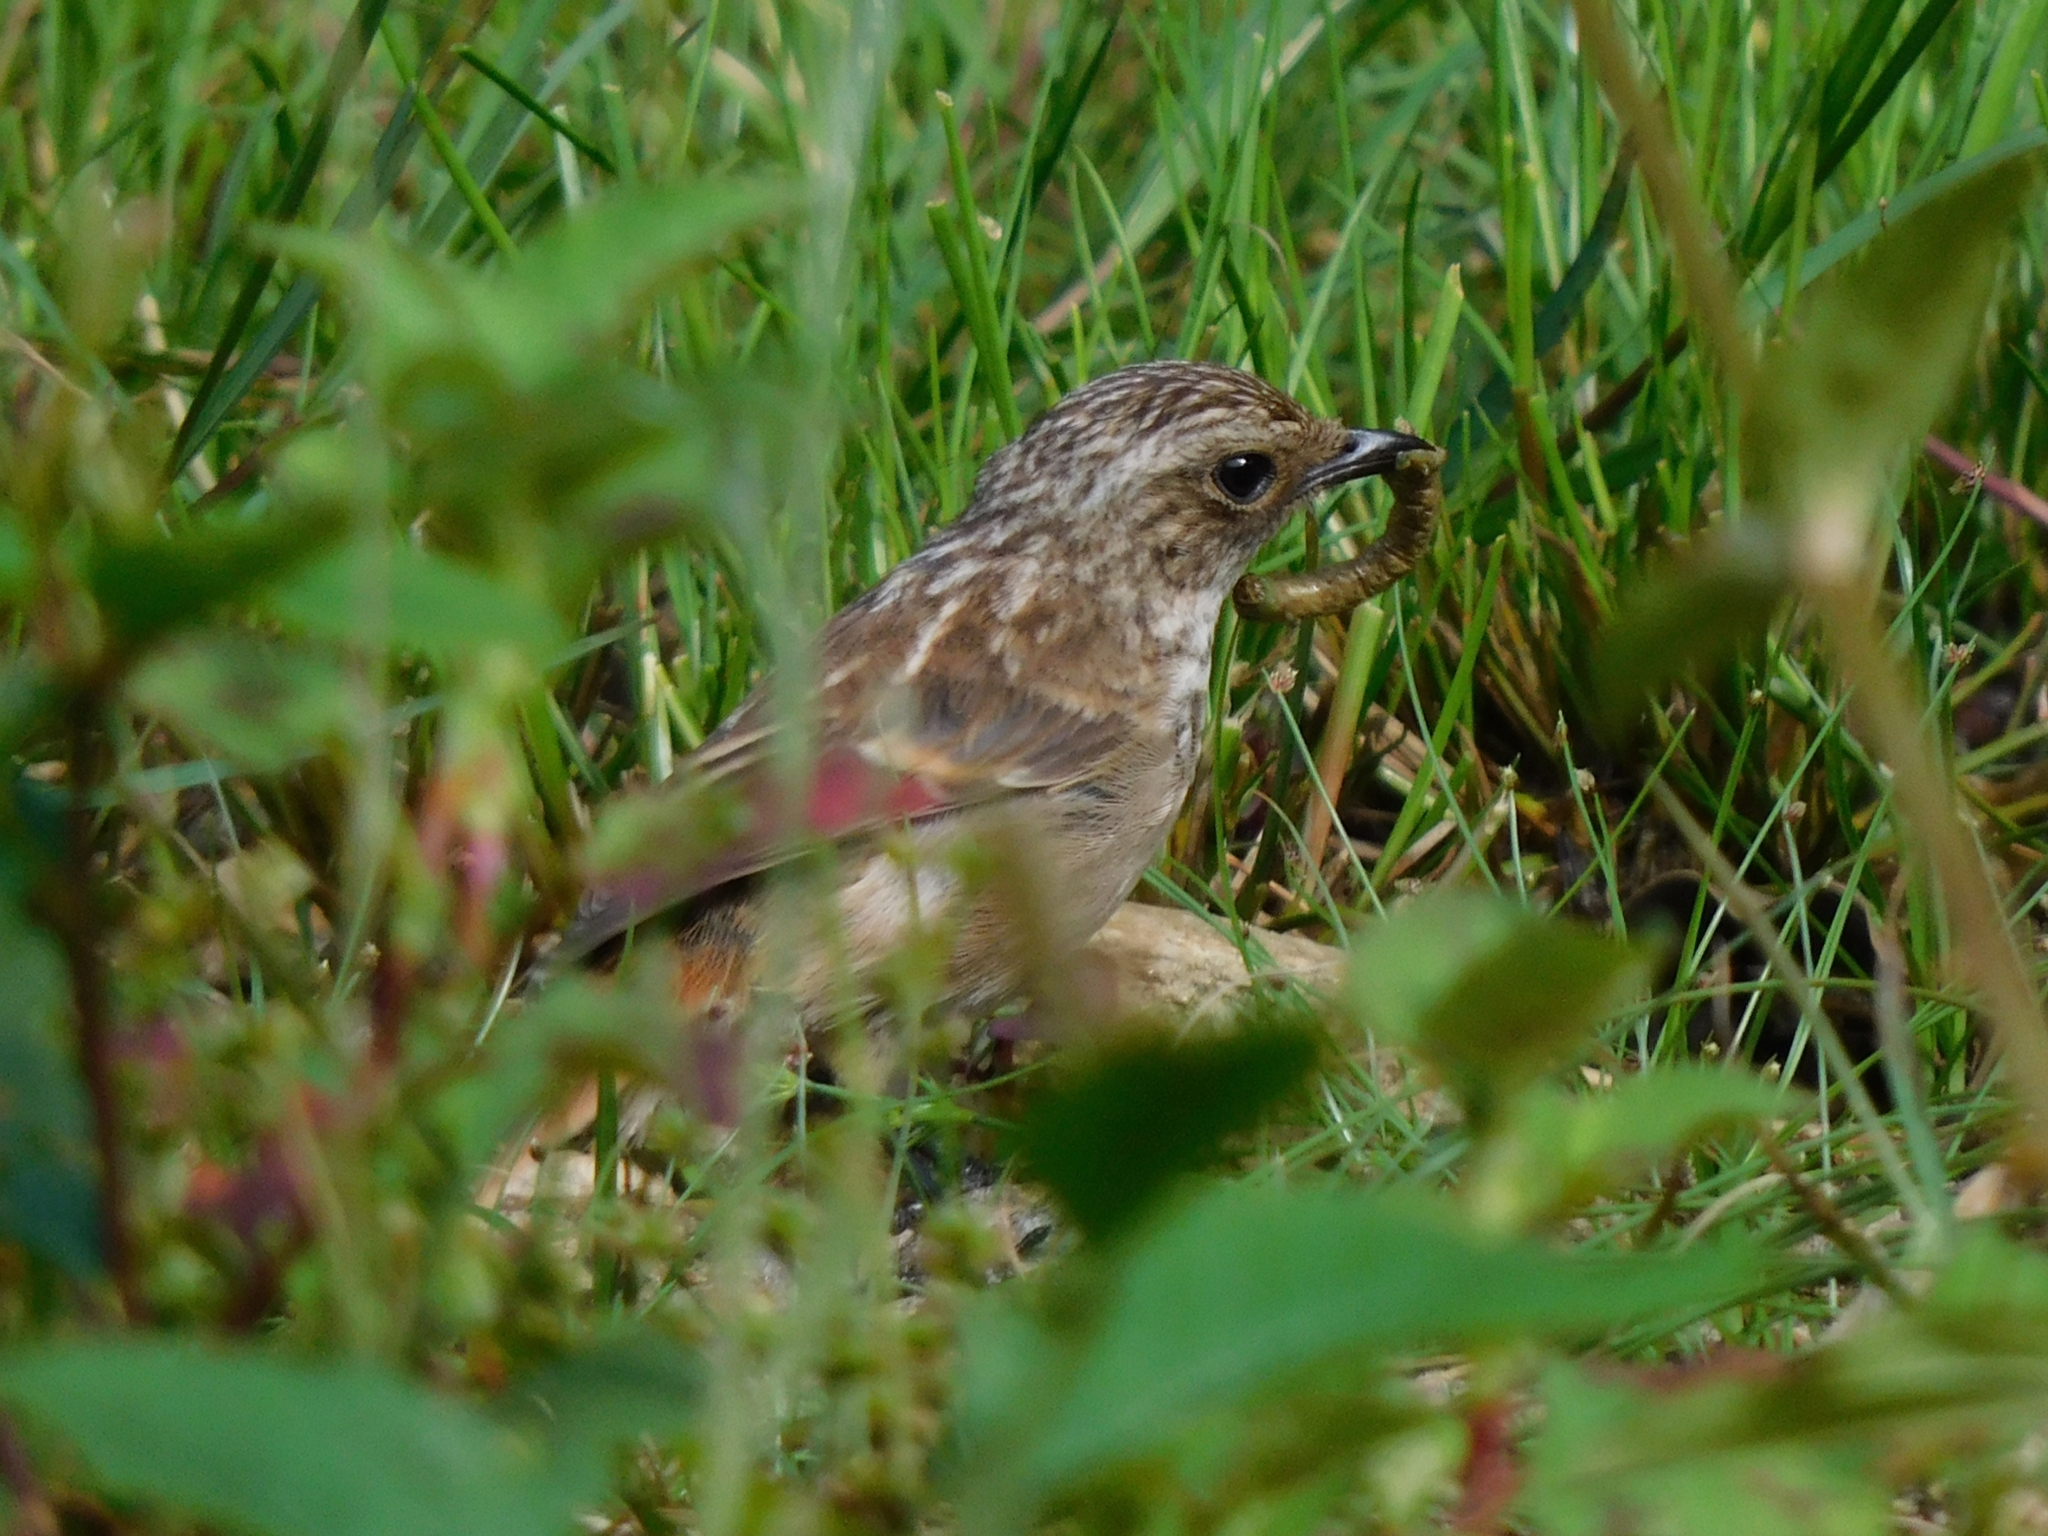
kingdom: Animalia
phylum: Chordata
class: Aves
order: Passeriformes
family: Muscicapidae
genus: Saxicola
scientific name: Saxicola ferreus
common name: Grey bush chat
